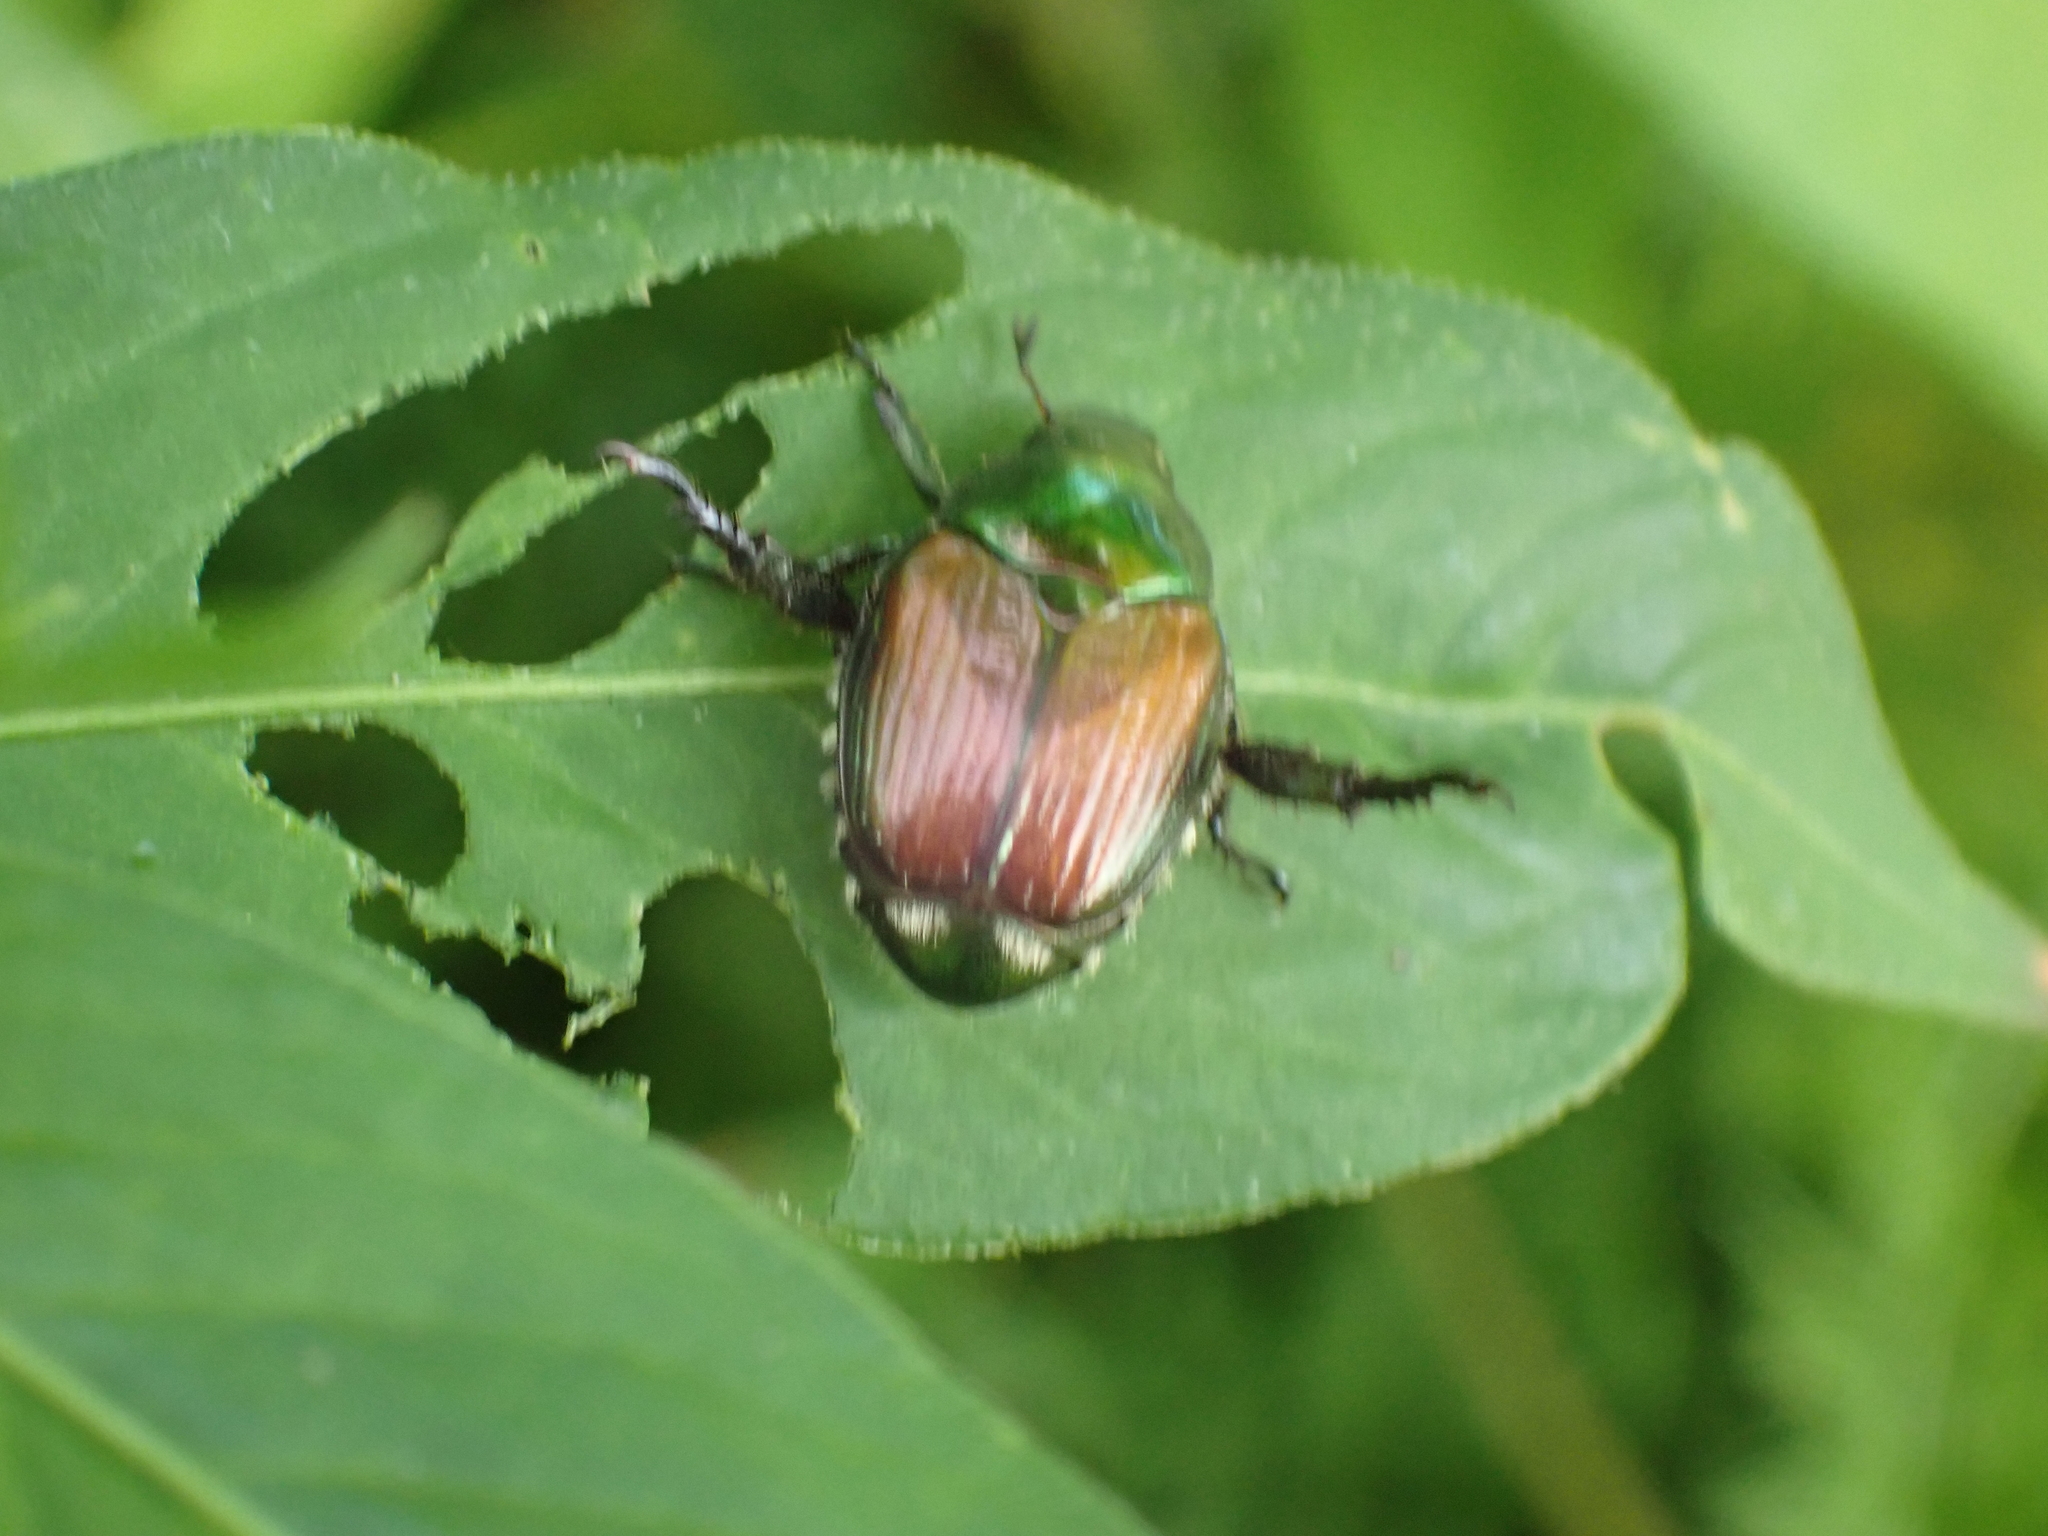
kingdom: Animalia
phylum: Arthropoda
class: Insecta
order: Coleoptera
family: Scarabaeidae
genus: Popillia
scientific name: Popillia japonica
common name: Japanese beetle
